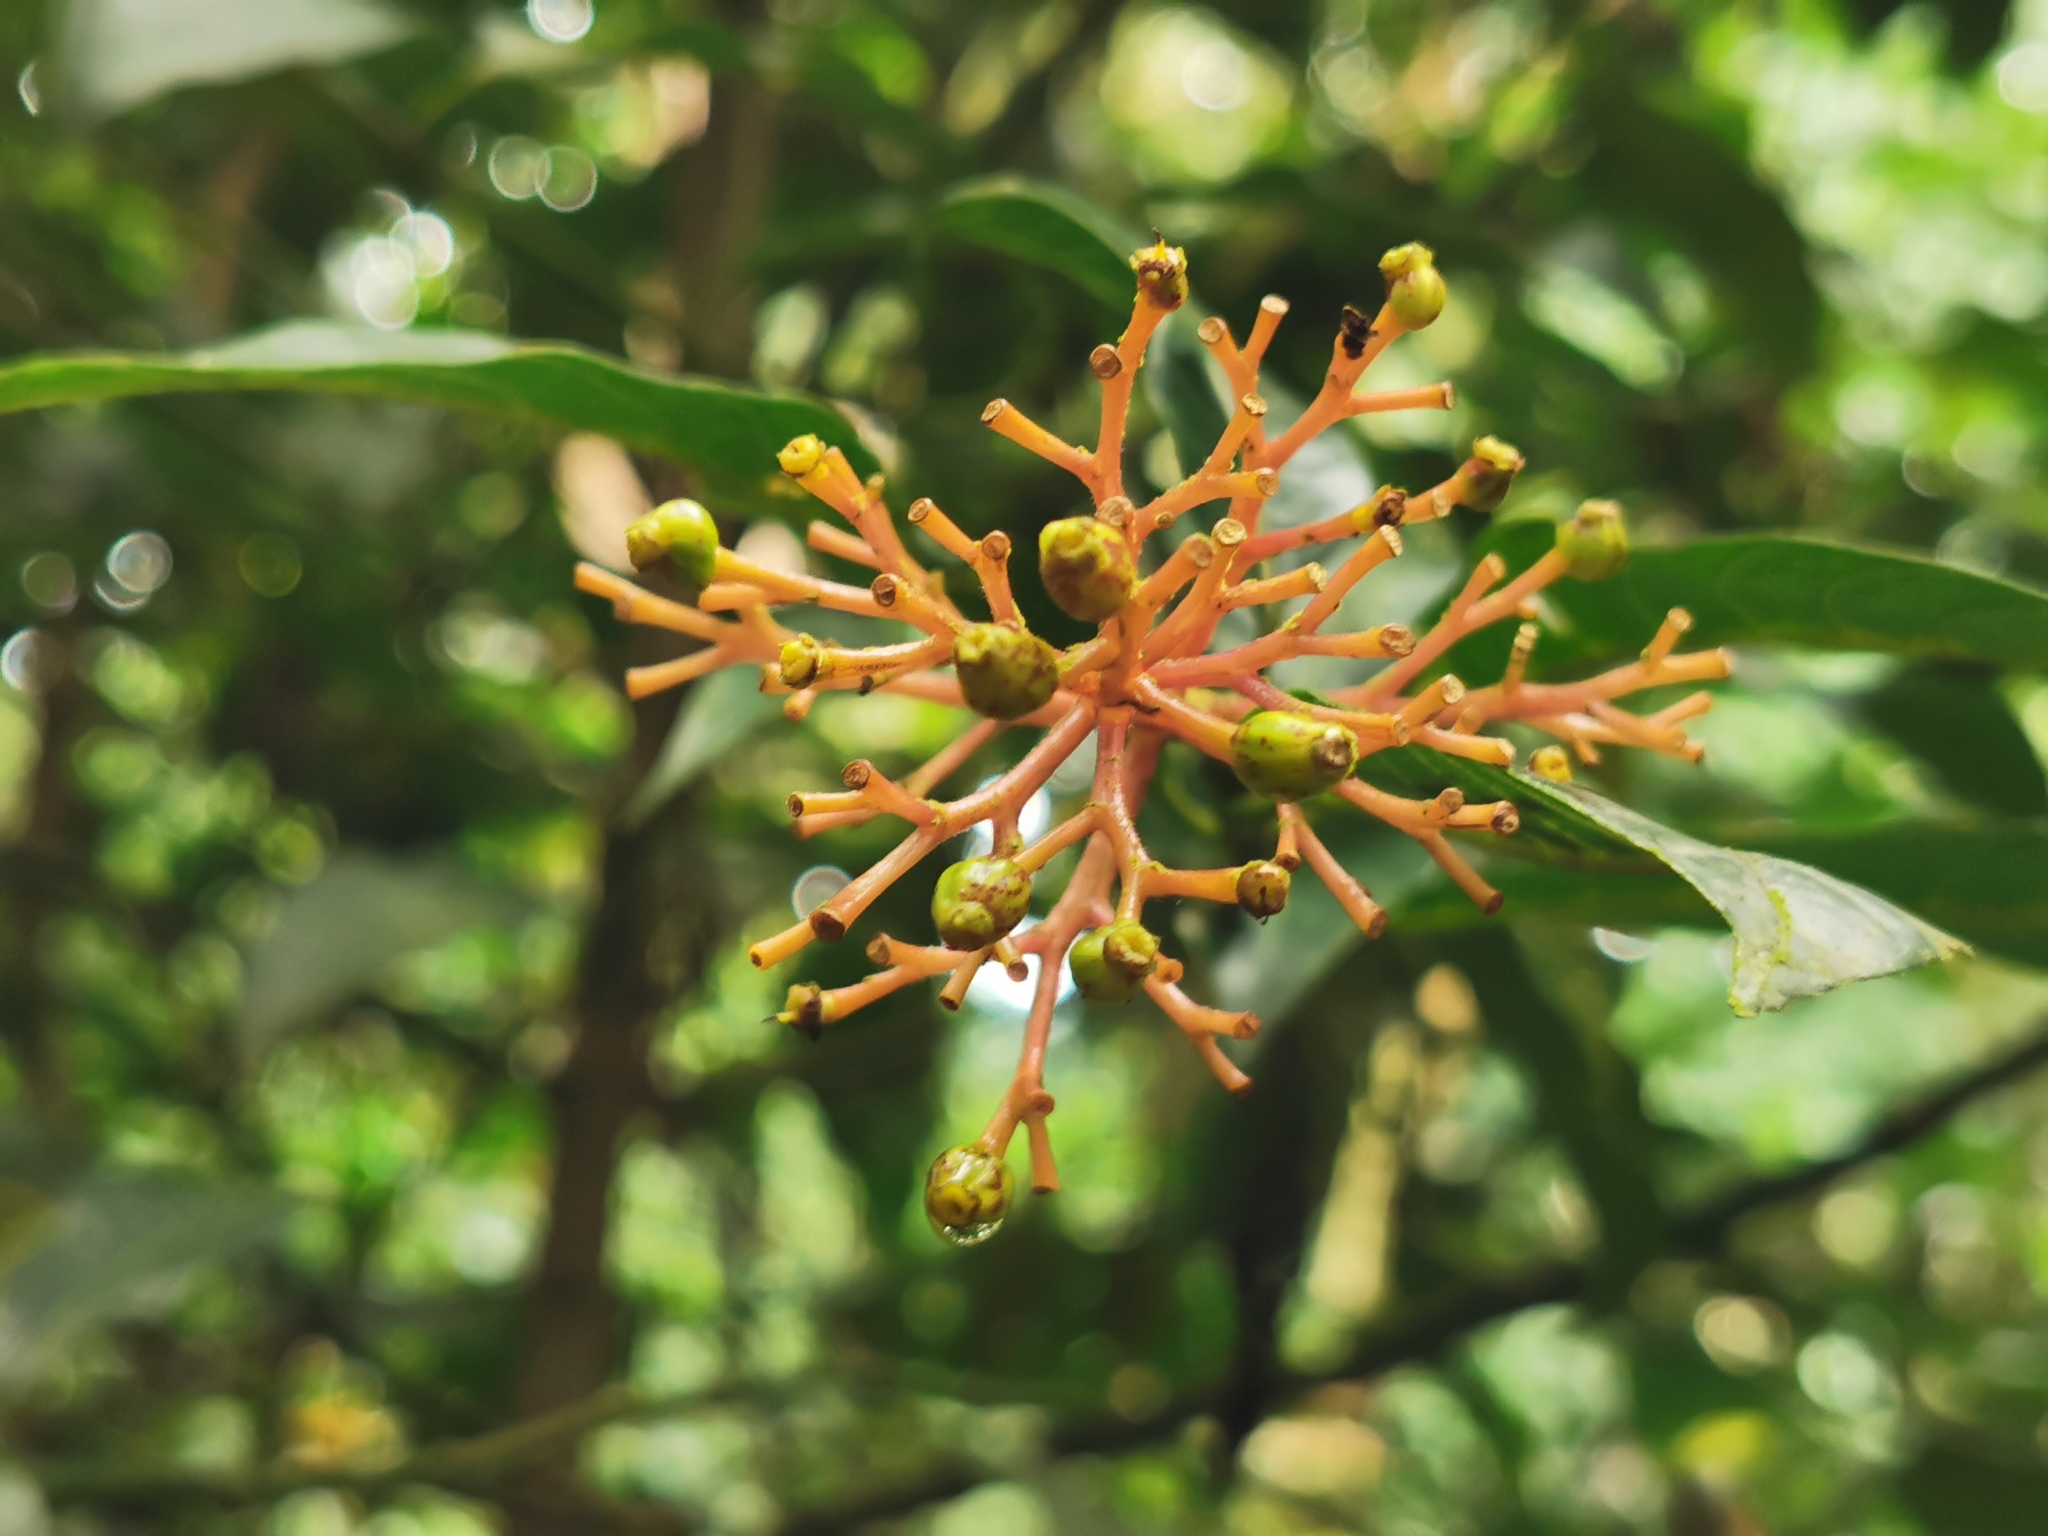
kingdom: Plantae
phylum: Tracheophyta
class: Magnoliopsida
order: Gentianales
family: Rubiaceae
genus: Palicourea
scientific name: Palicourea padifolia
